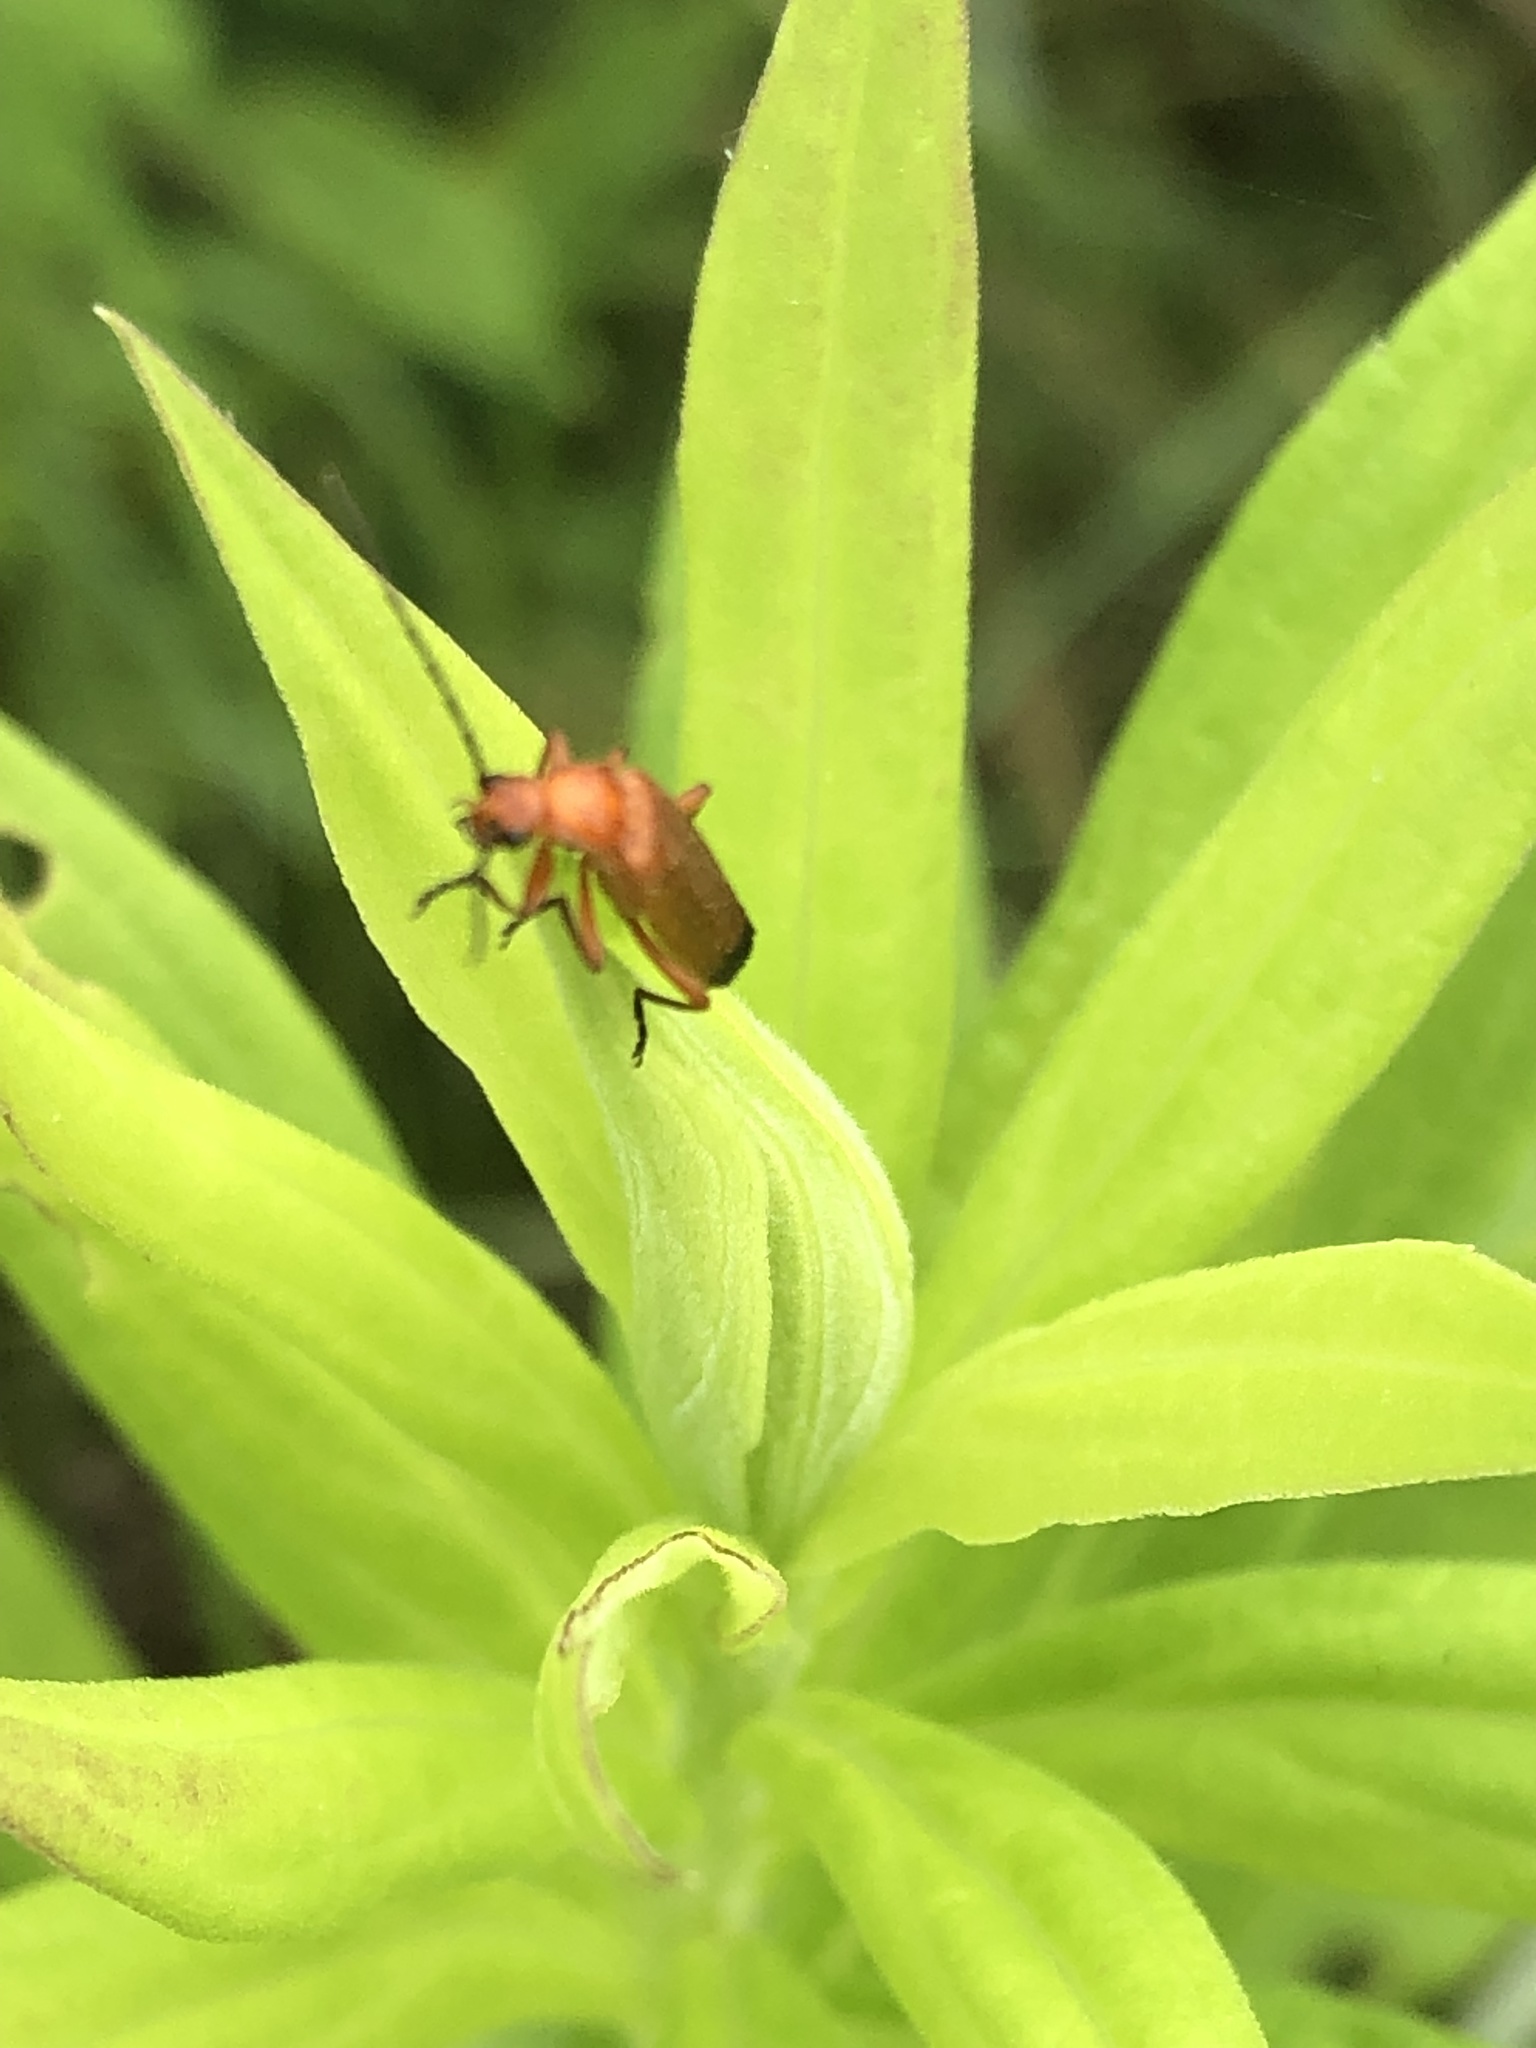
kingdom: Animalia
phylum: Arthropoda
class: Insecta
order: Coleoptera
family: Cantharidae
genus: Rhagonycha
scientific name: Rhagonycha fulva
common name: Common red soldier beetle
